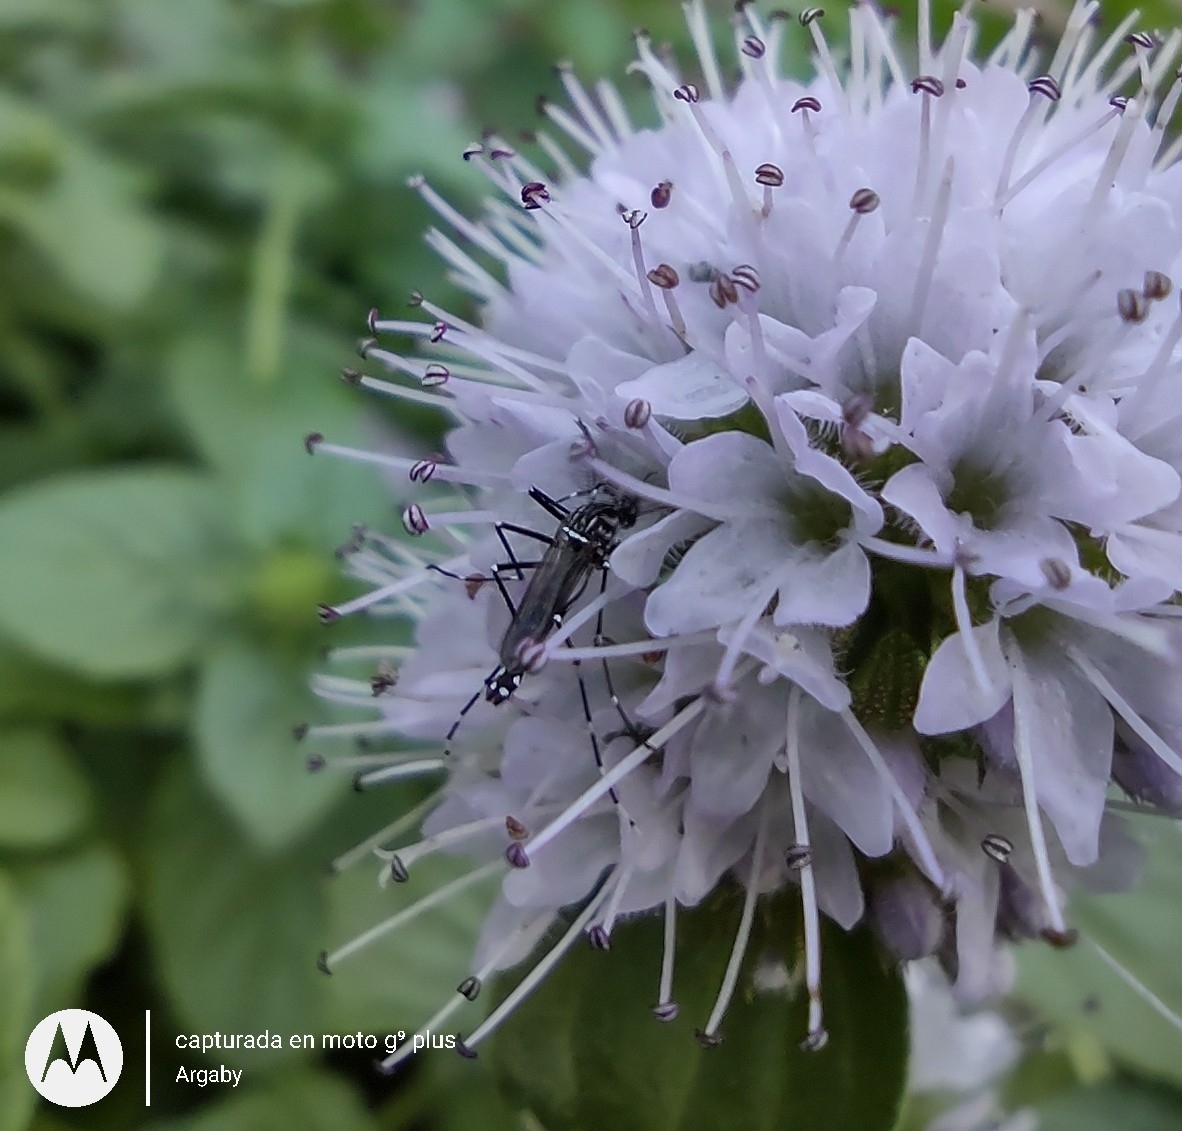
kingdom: Animalia
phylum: Arthropoda
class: Insecta
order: Diptera
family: Culicidae
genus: Aedes
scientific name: Aedes aegypti
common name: Yellow fever mosquito
